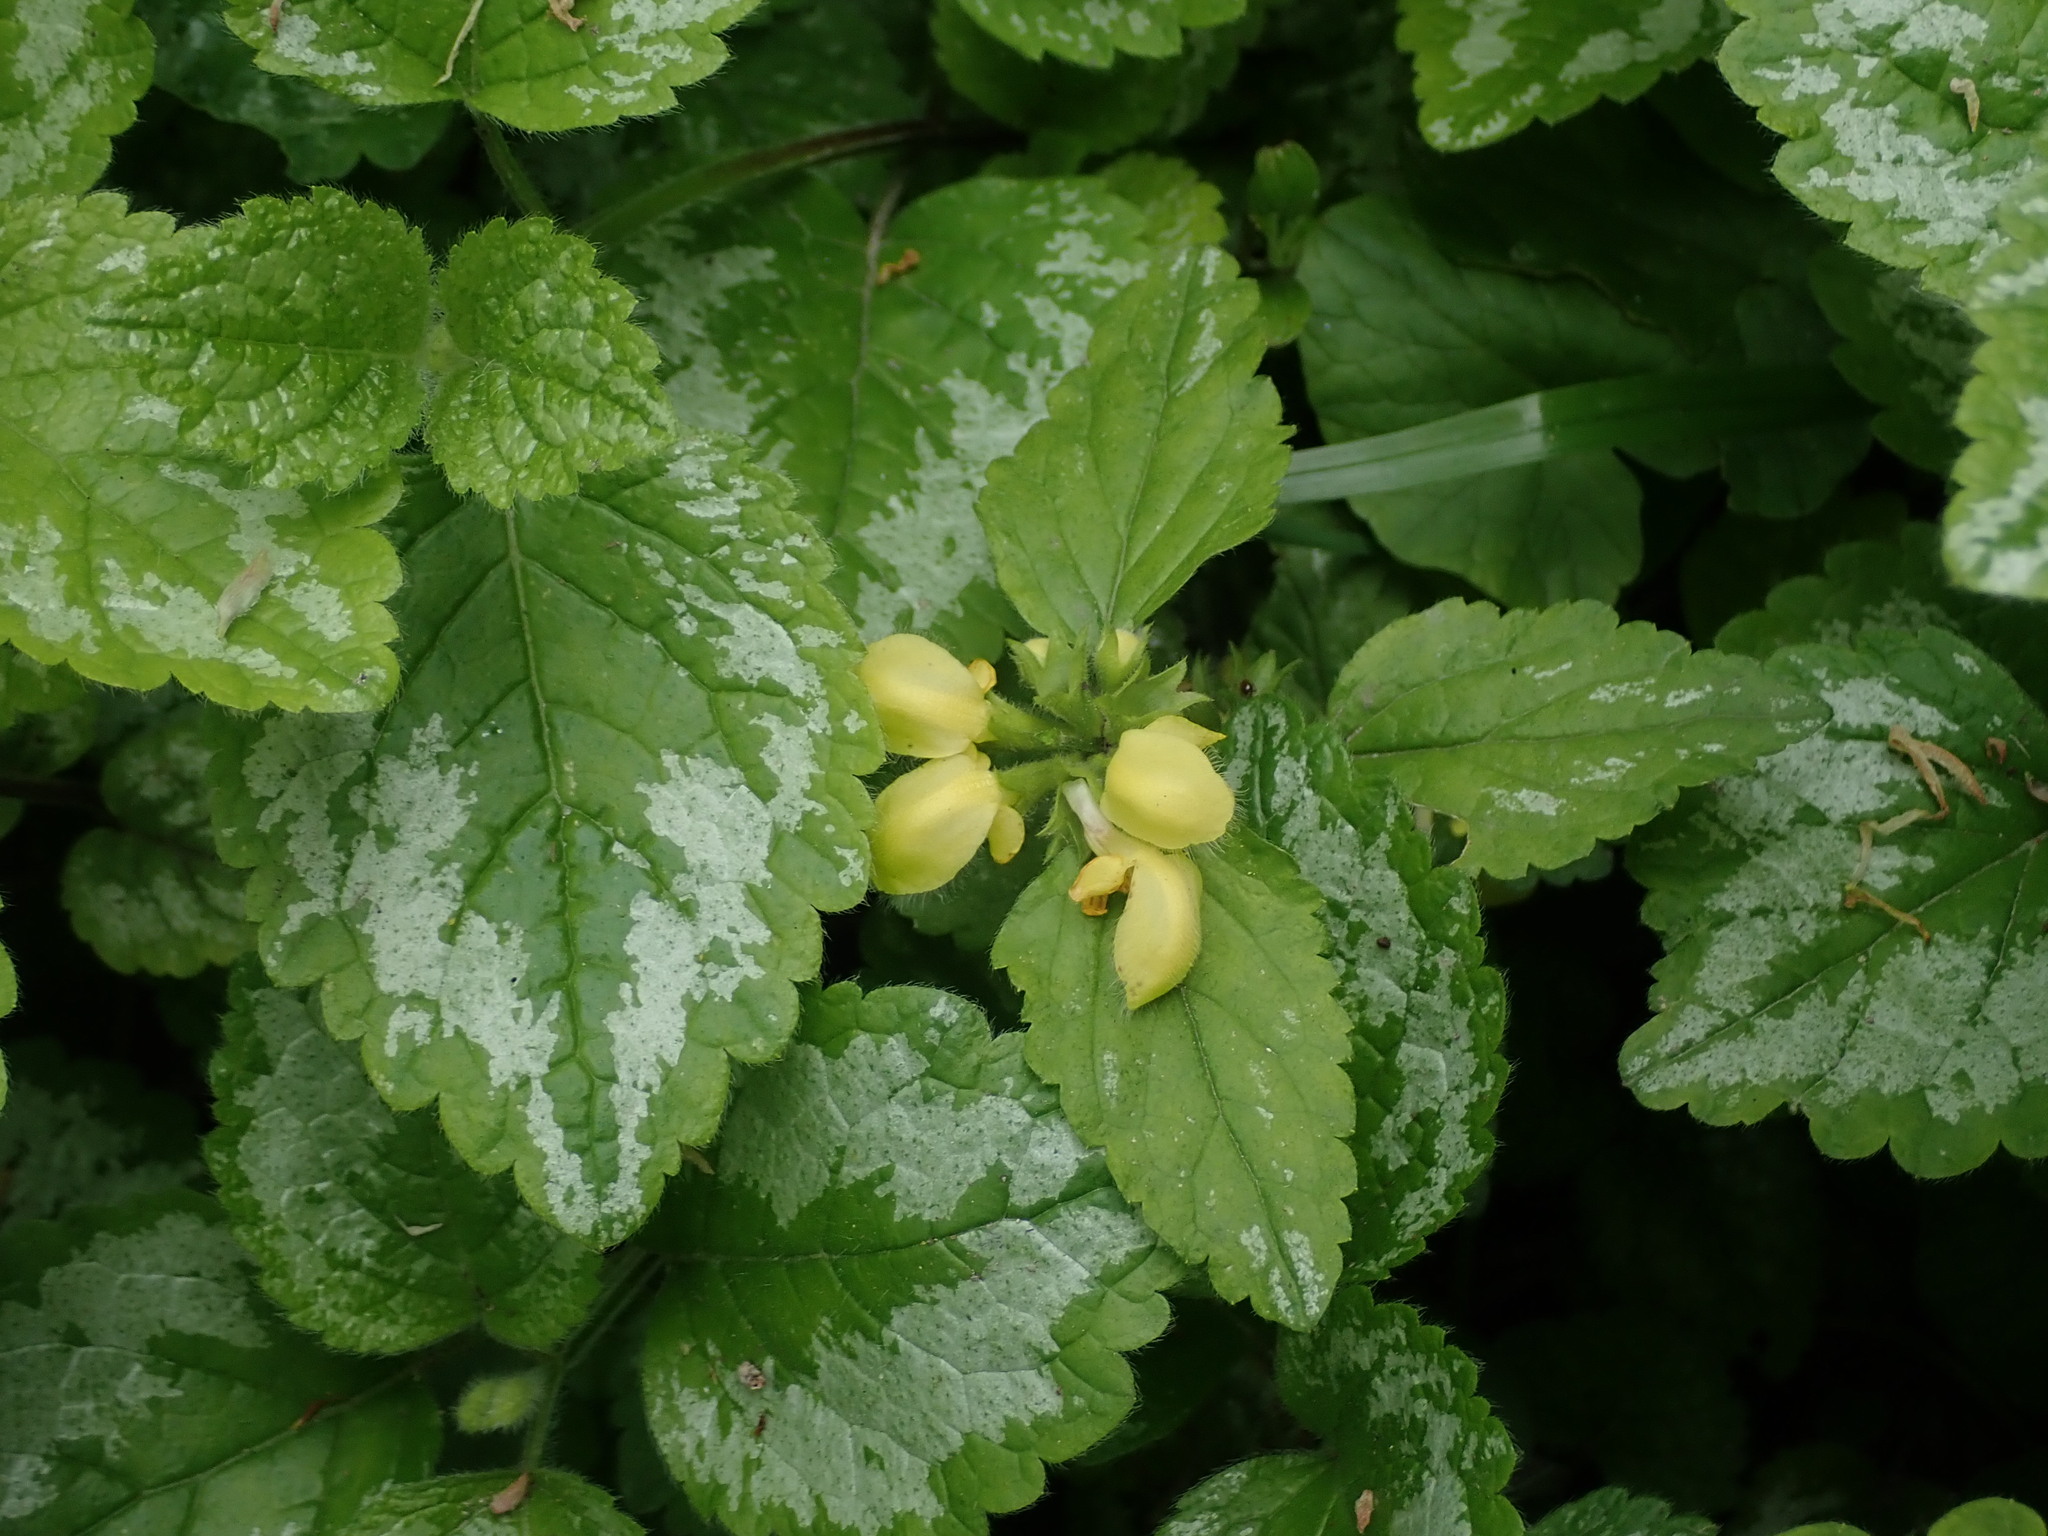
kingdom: Plantae
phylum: Tracheophyta
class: Magnoliopsida
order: Lamiales
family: Lamiaceae
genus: Lamium
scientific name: Lamium galeobdolon
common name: Yellow archangel
